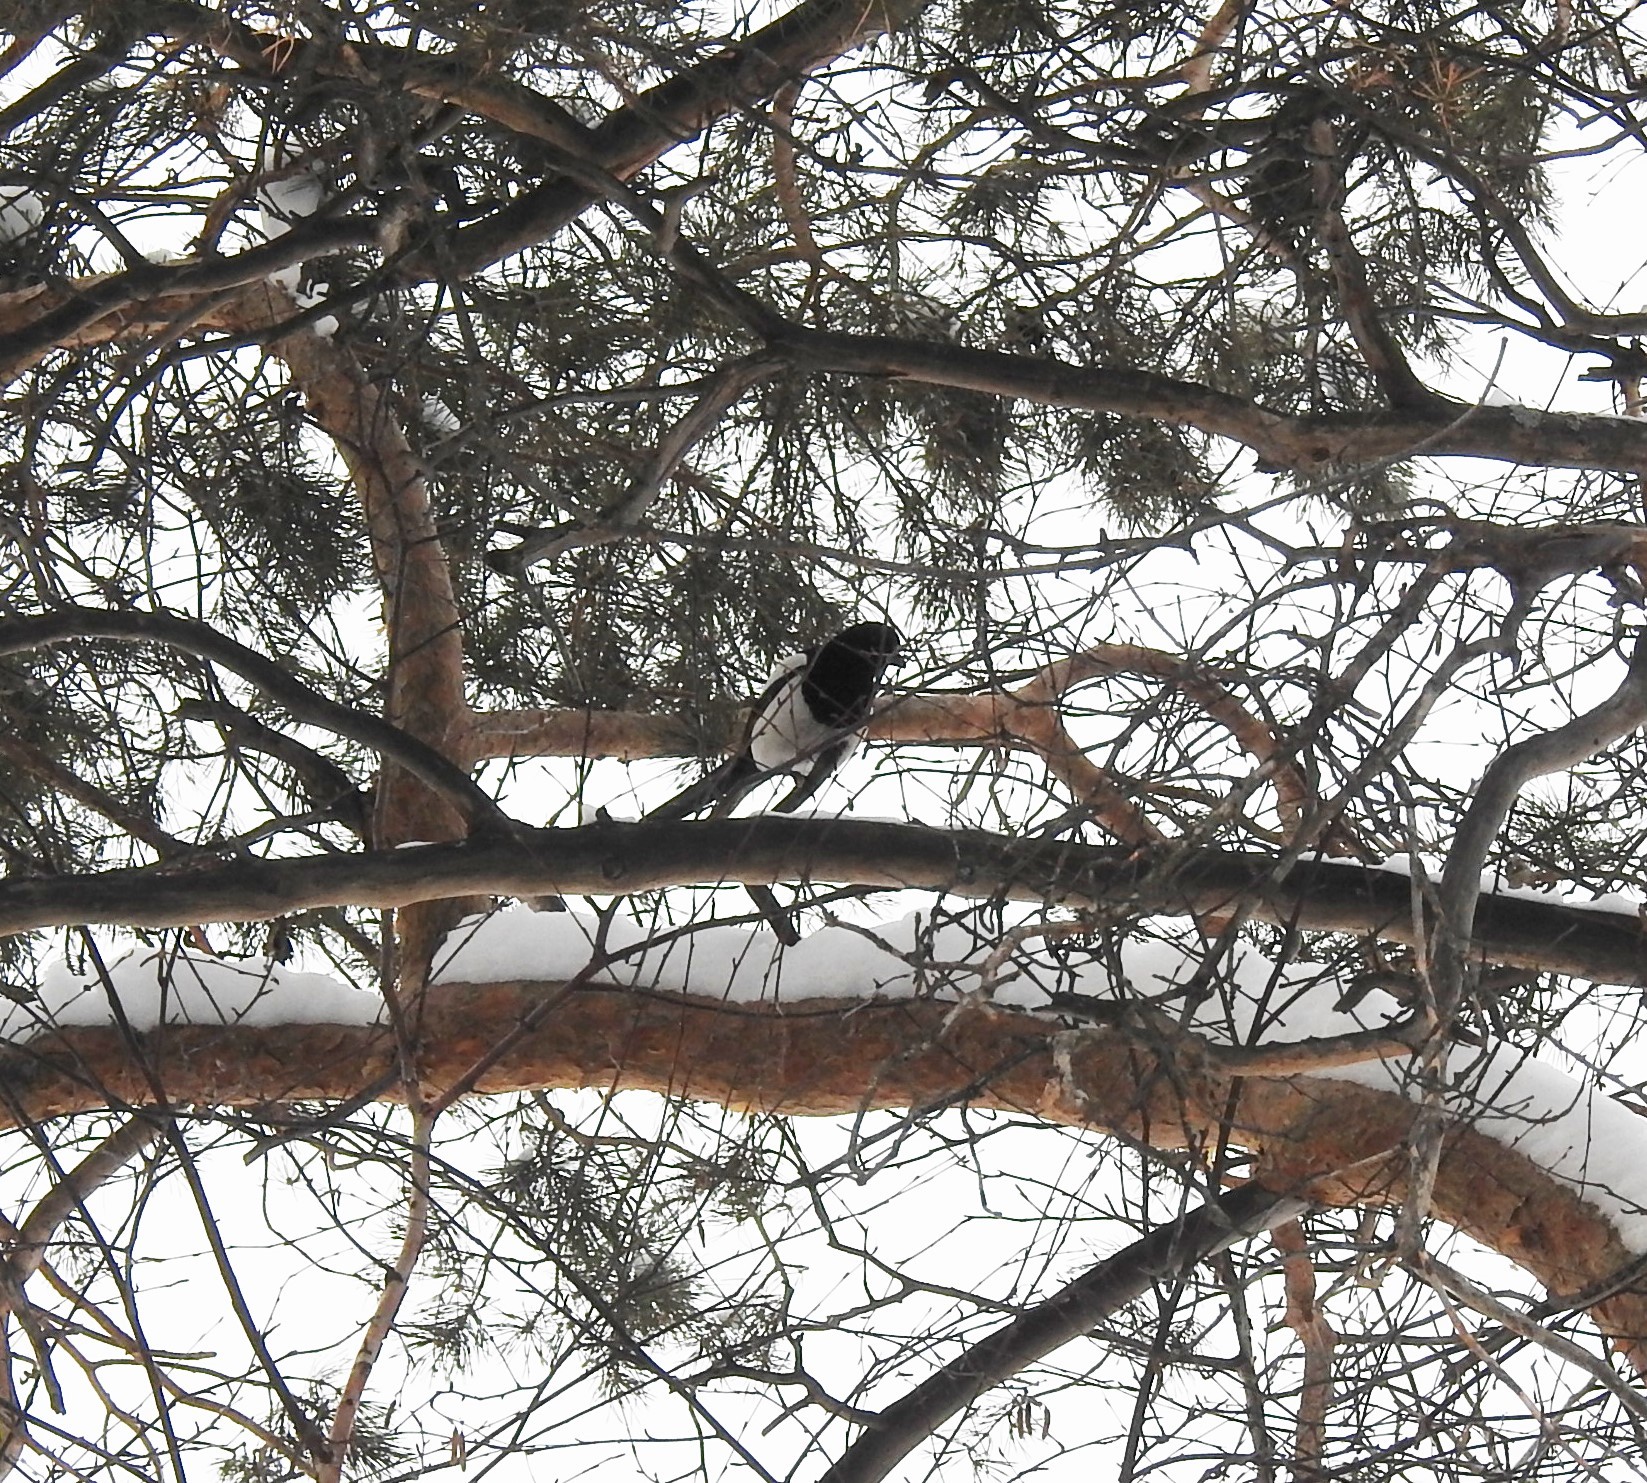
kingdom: Animalia
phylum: Chordata
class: Aves
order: Passeriformes
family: Corvidae
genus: Pica
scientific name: Pica pica
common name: Eurasian magpie
